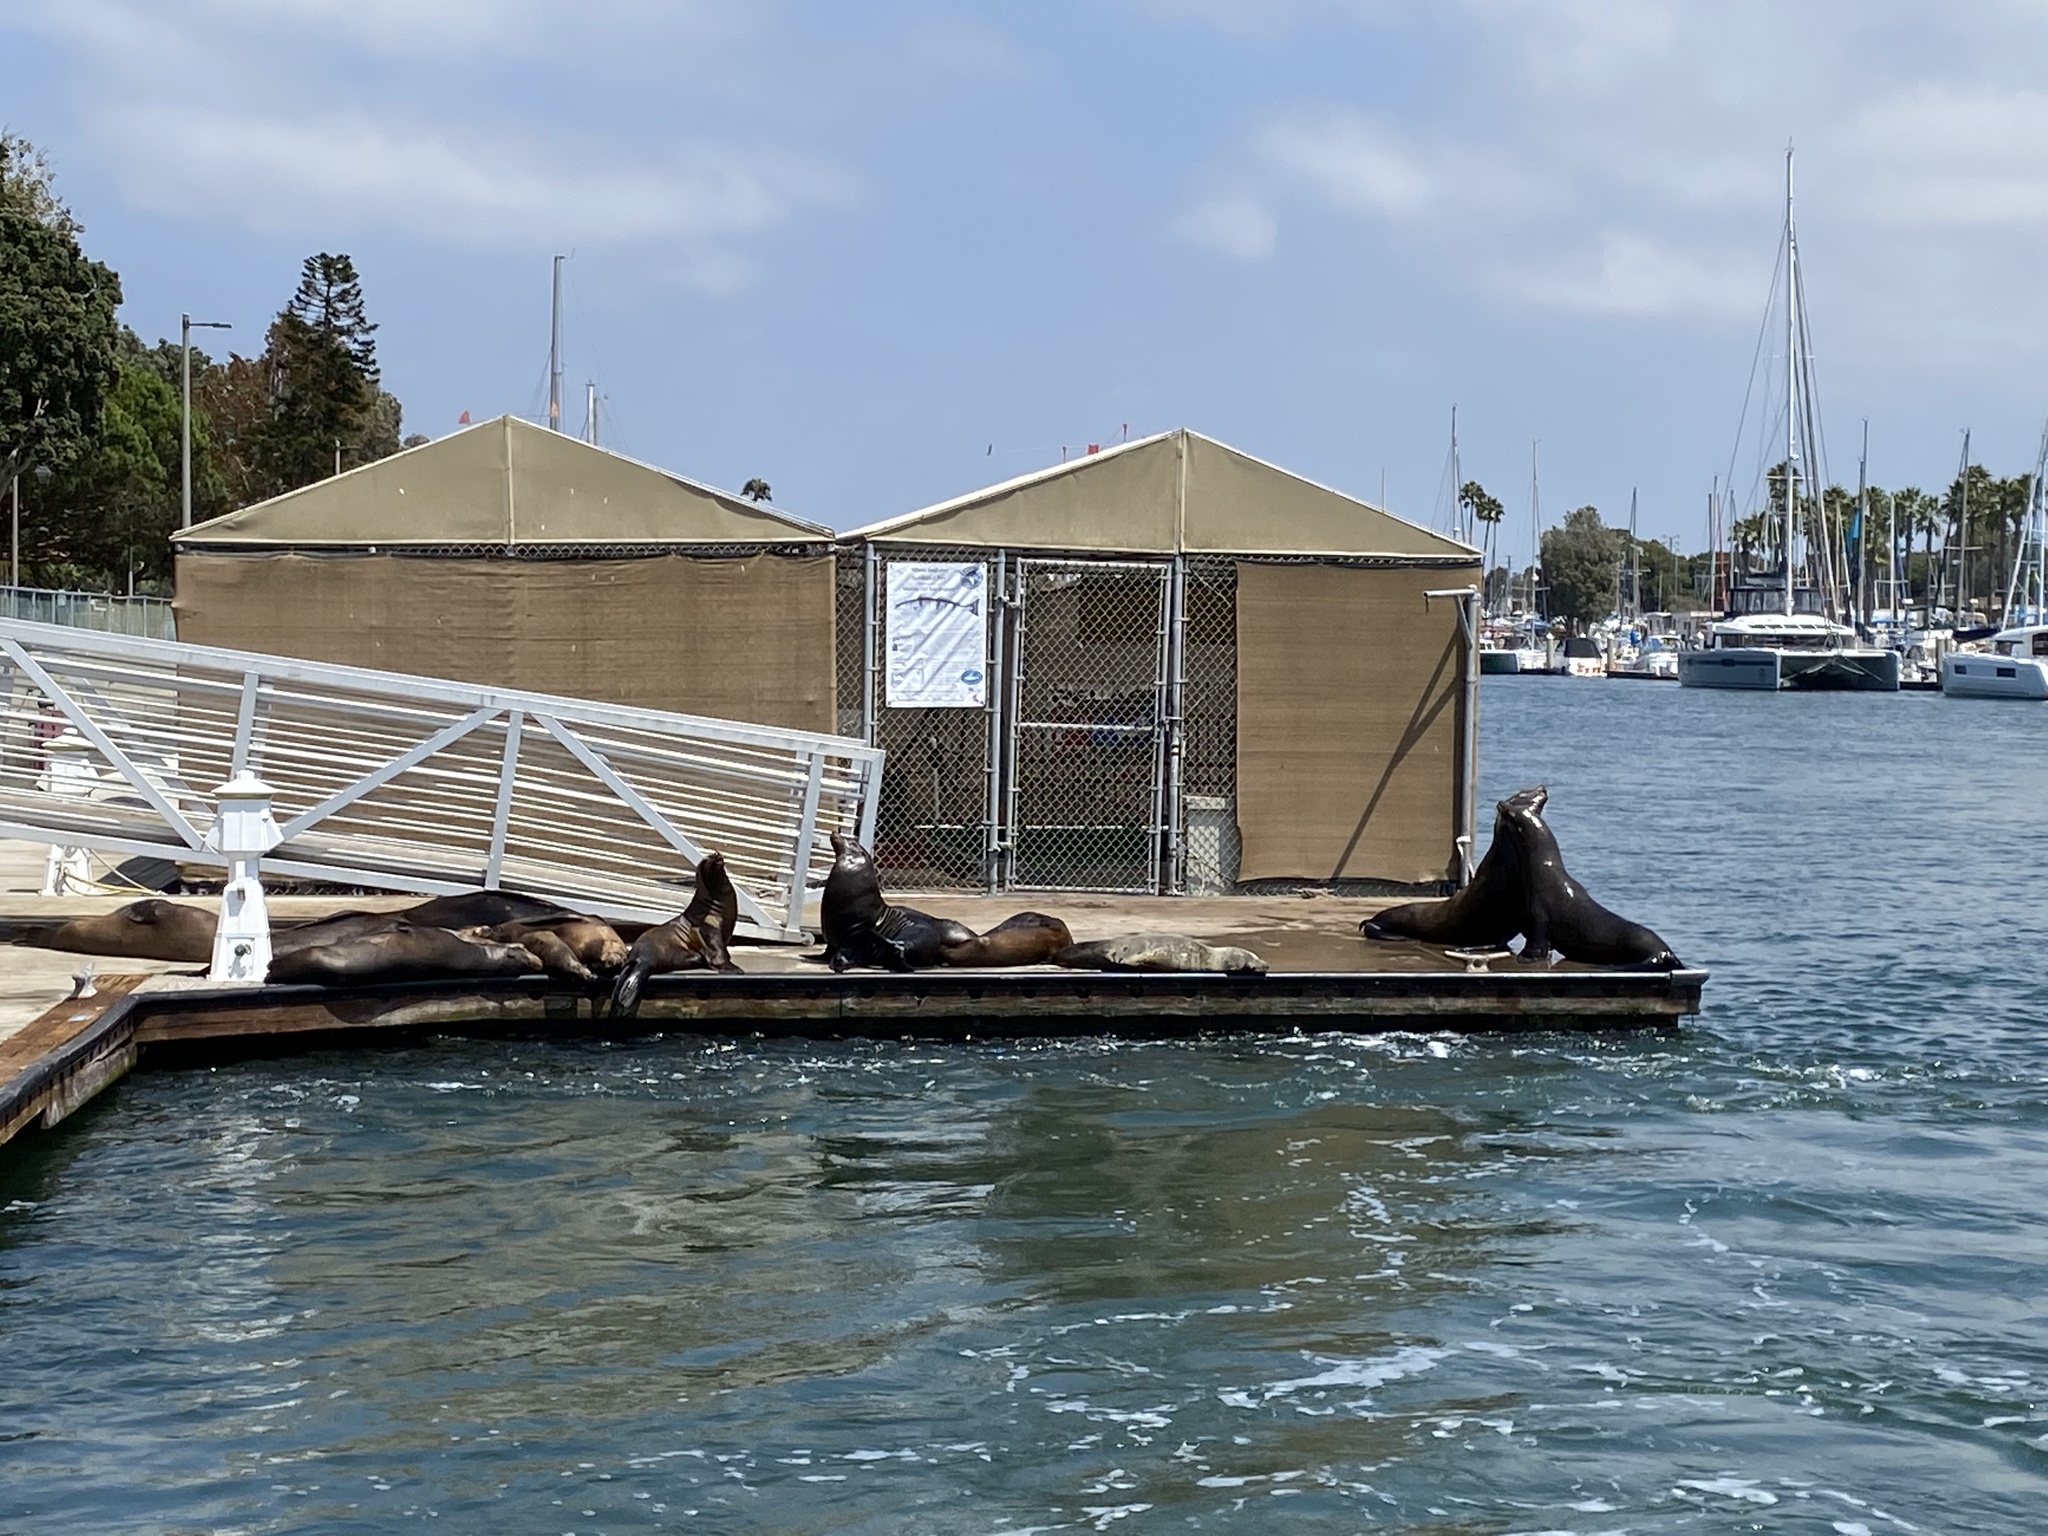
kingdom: Animalia
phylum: Chordata
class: Mammalia
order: Carnivora
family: Otariidae
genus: Zalophus
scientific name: Zalophus californianus
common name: California sea lion
